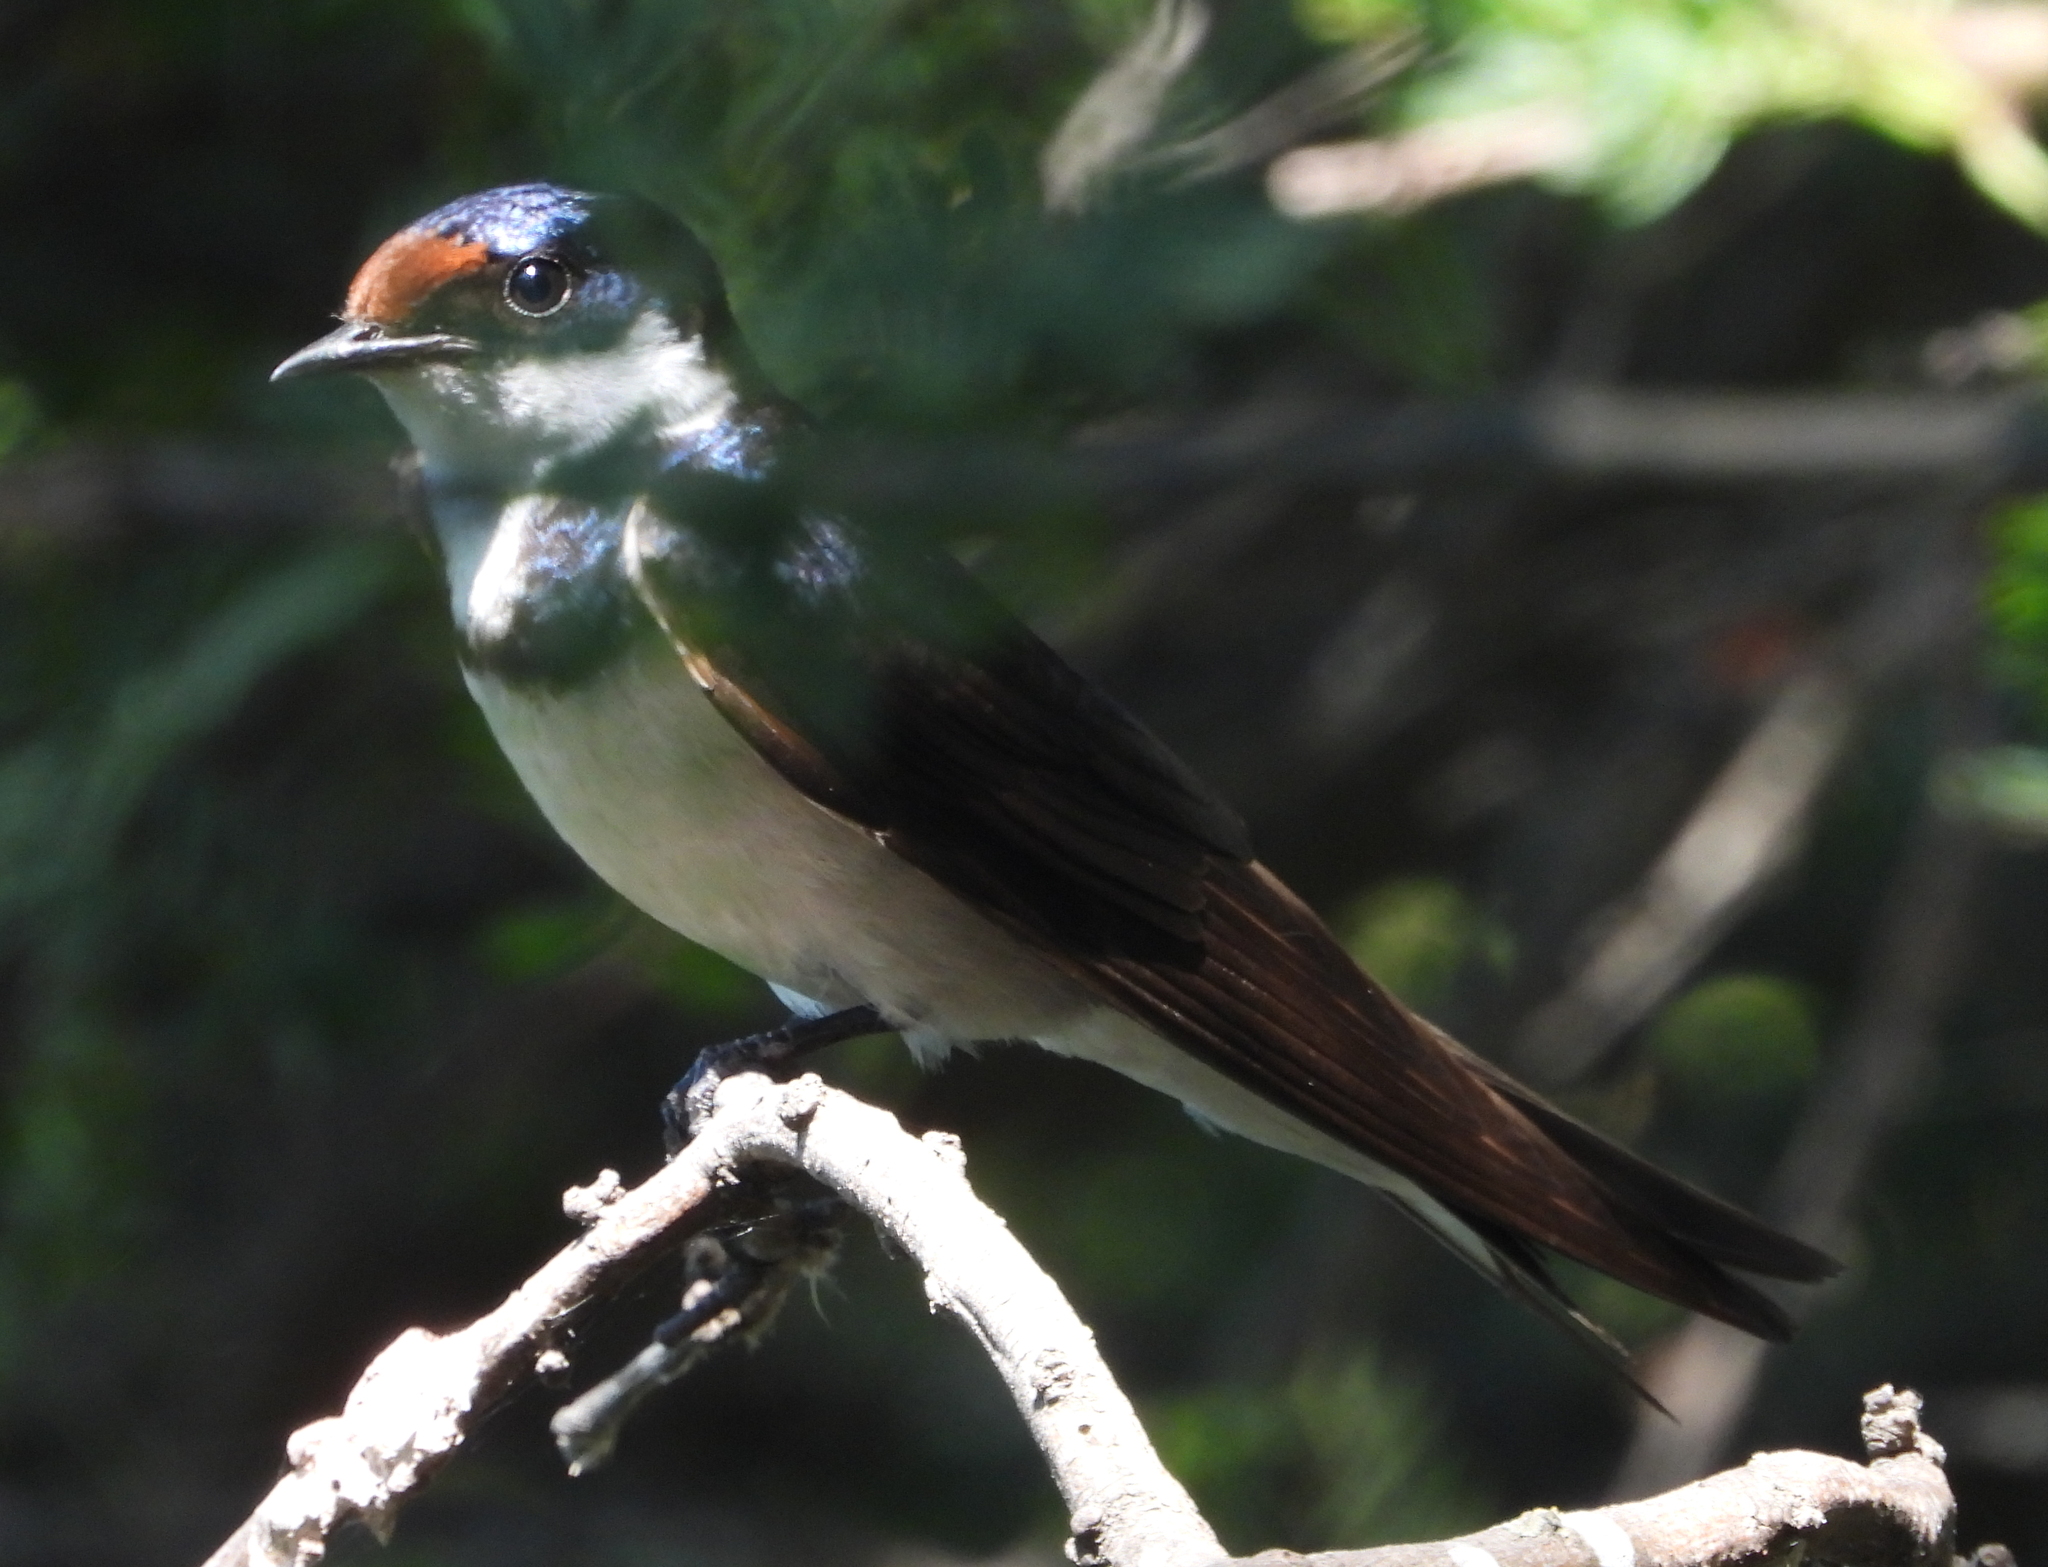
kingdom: Animalia
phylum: Chordata
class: Aves
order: Passeriformes
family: Hirundinidae
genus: Hirundo
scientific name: Hirundo albigularis
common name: White-throated swallow
